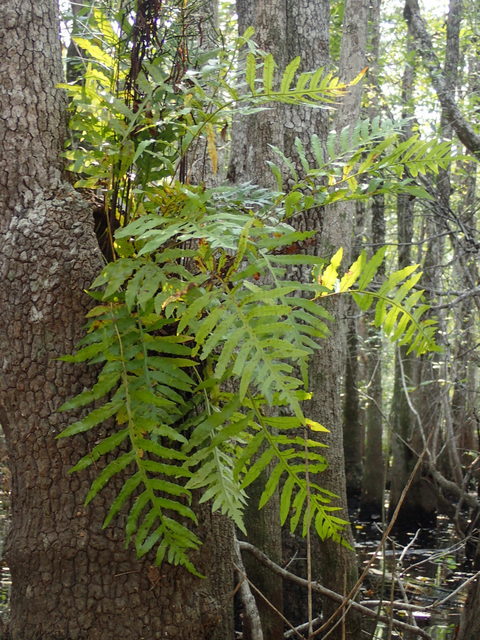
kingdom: Plantae
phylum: Tracheophyta
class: Polypodiopsida
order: Polypodiales
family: Polypodiaceae
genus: Phlebodium
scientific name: Phlebodium aureum
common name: Gold-foot fern
